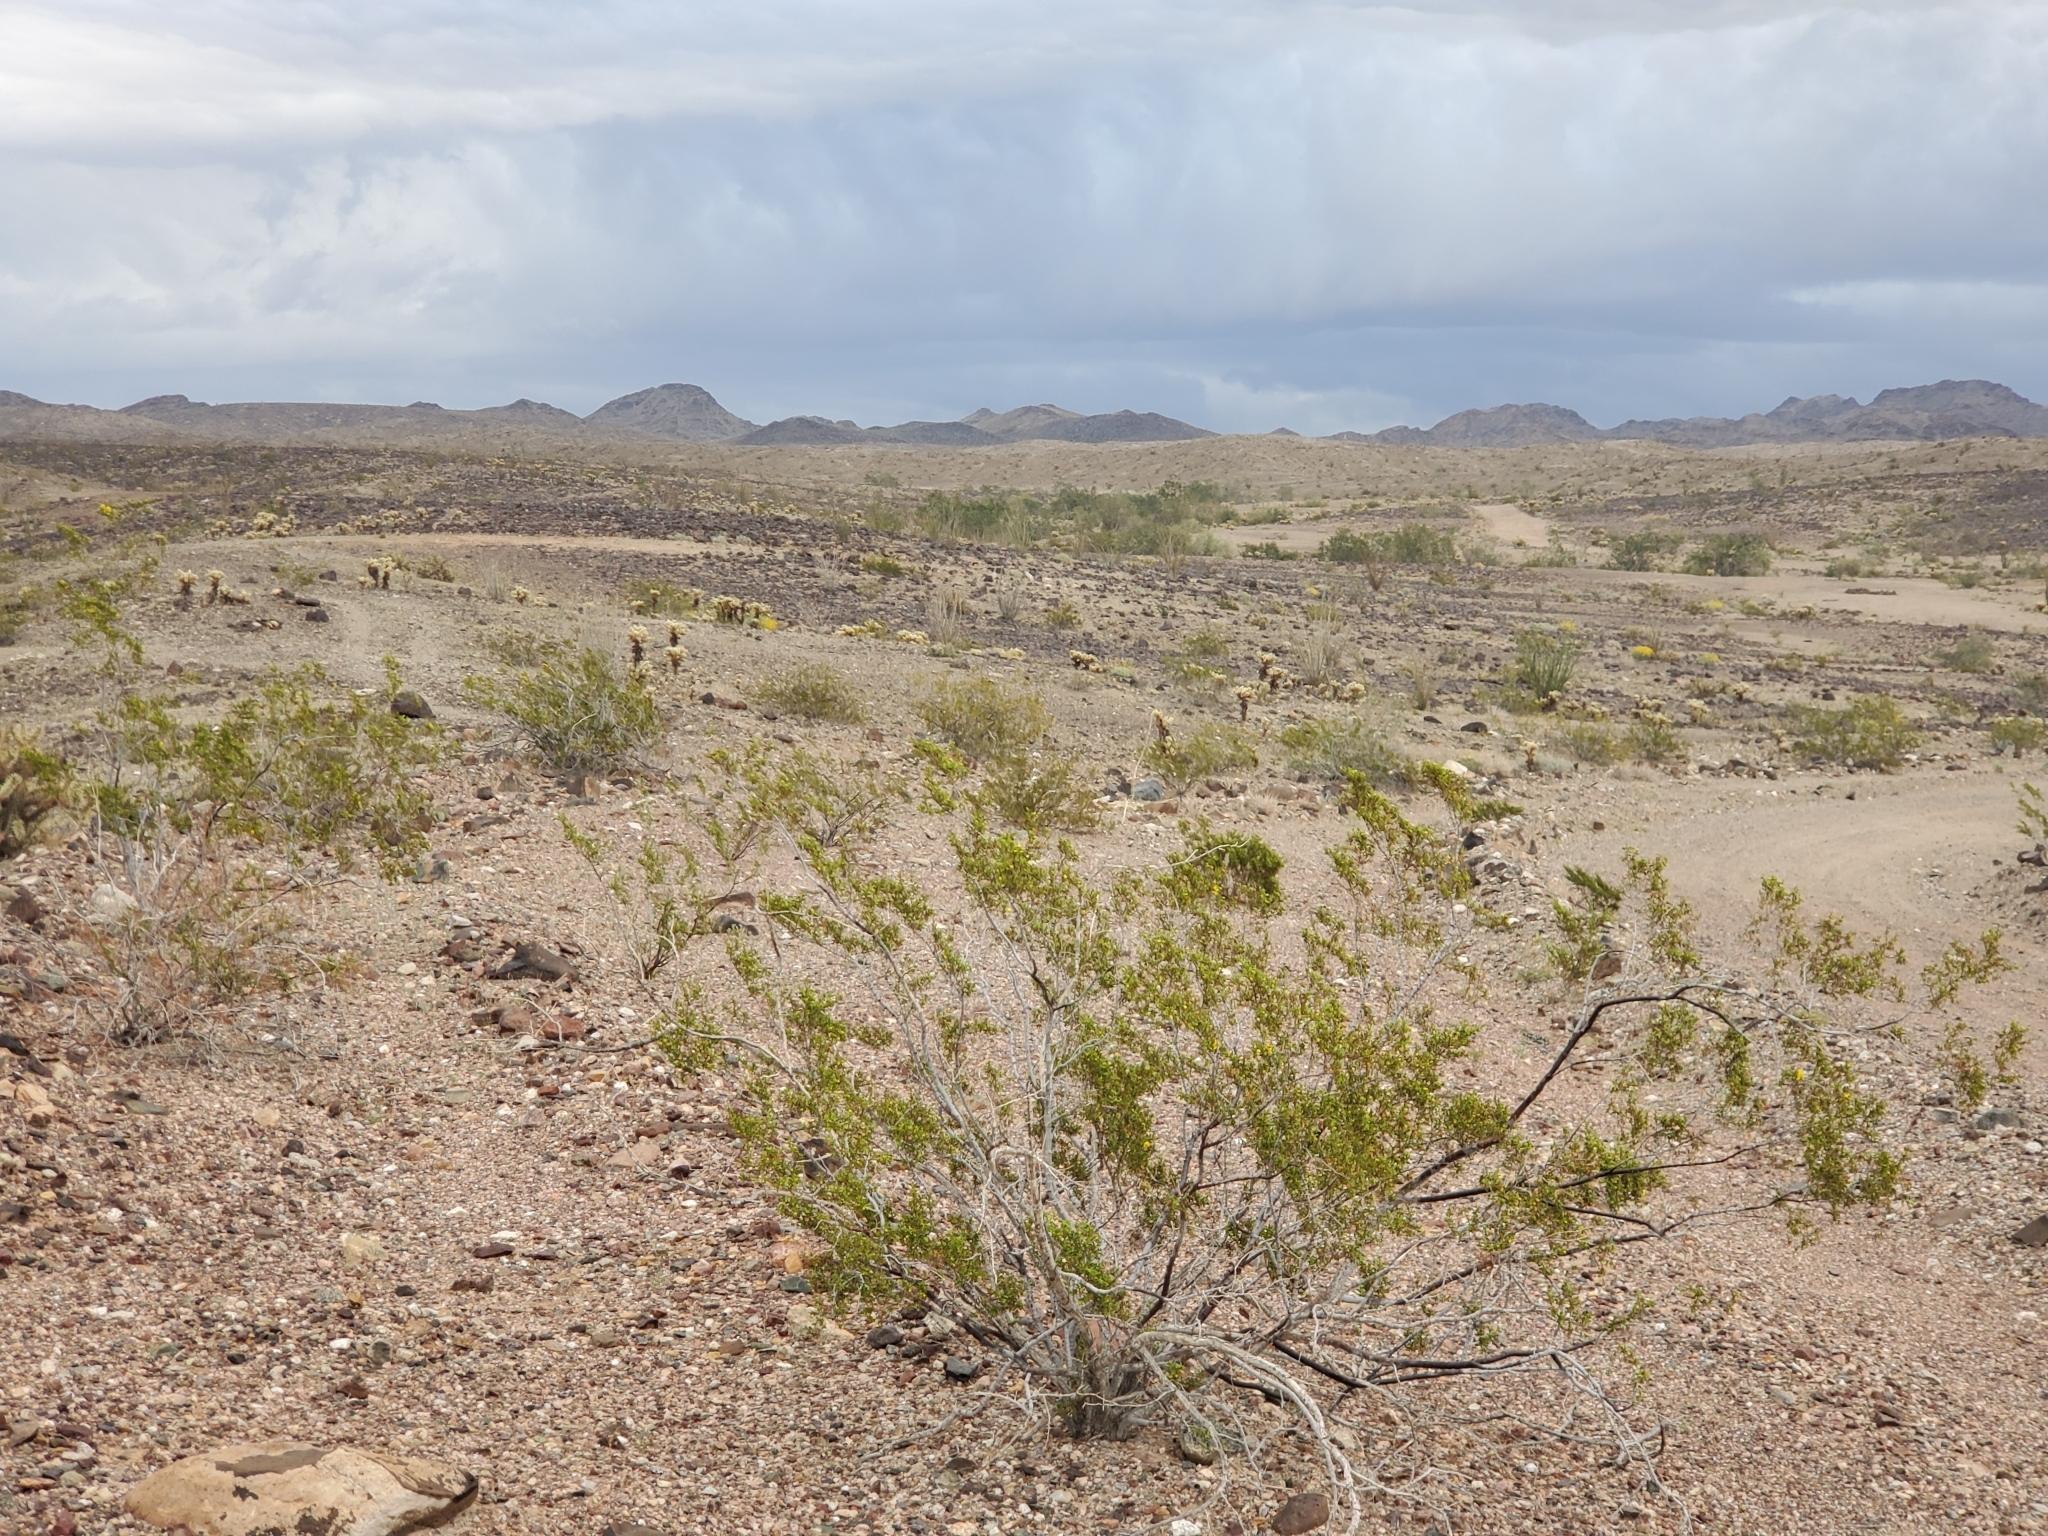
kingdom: Plantae
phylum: Tracheophyta
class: Magnoliopsida
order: Zygophyllales
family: Zygophyllaceae
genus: Larrea
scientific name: Larrea tridentata
